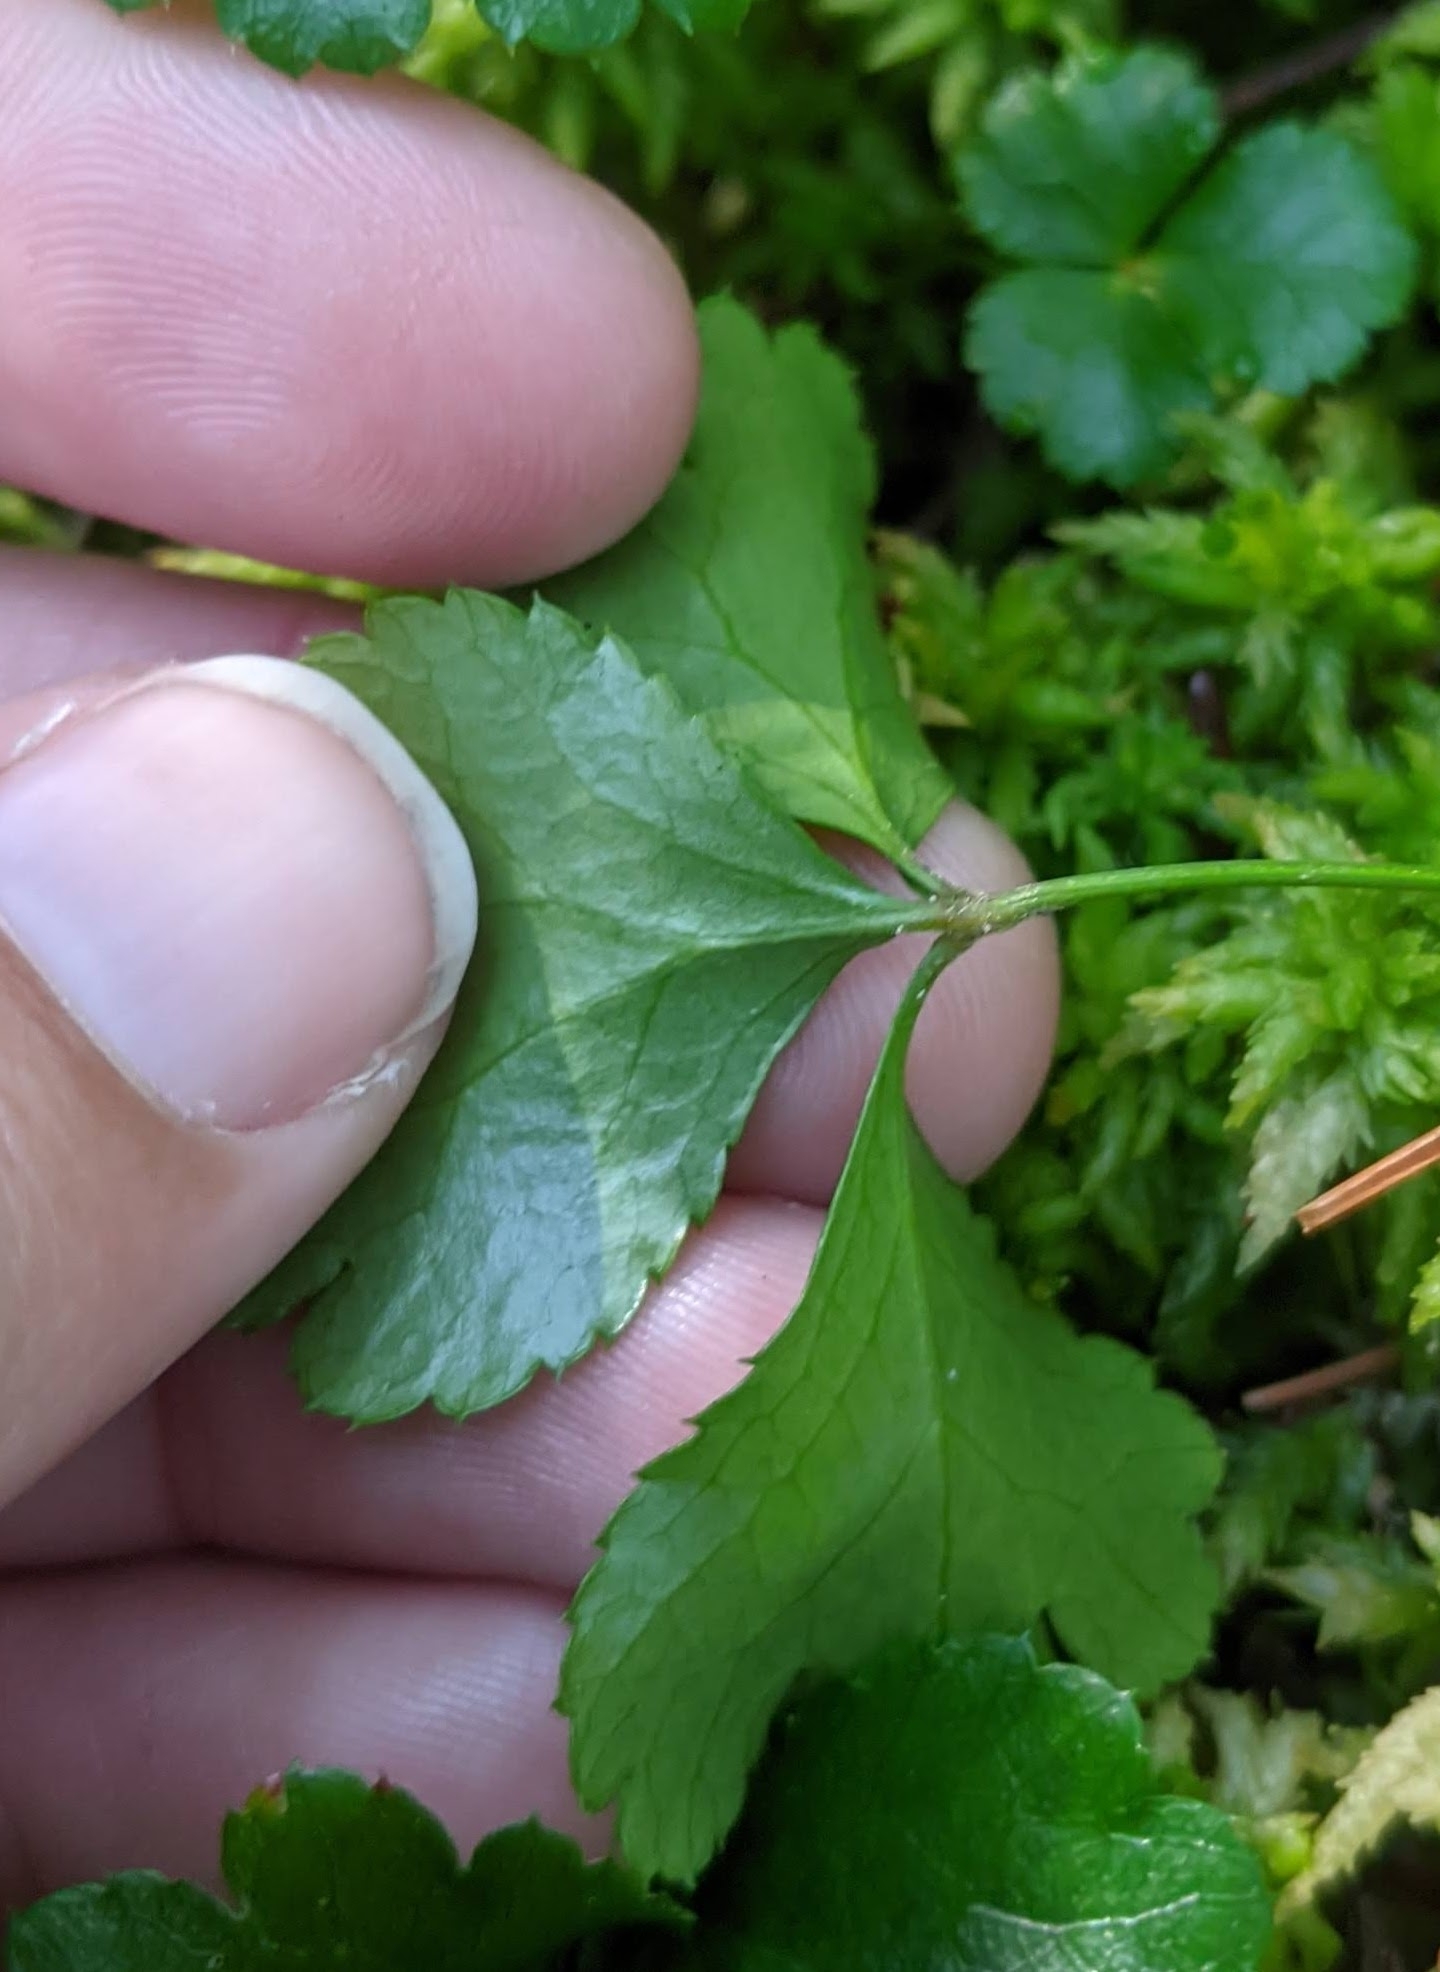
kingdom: Plantae
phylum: Tracheophyta
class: Magnoliopsida
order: Ranunculales
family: Ranunculaceae
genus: Coptis
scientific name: Coptis trifolia
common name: Canker-root
